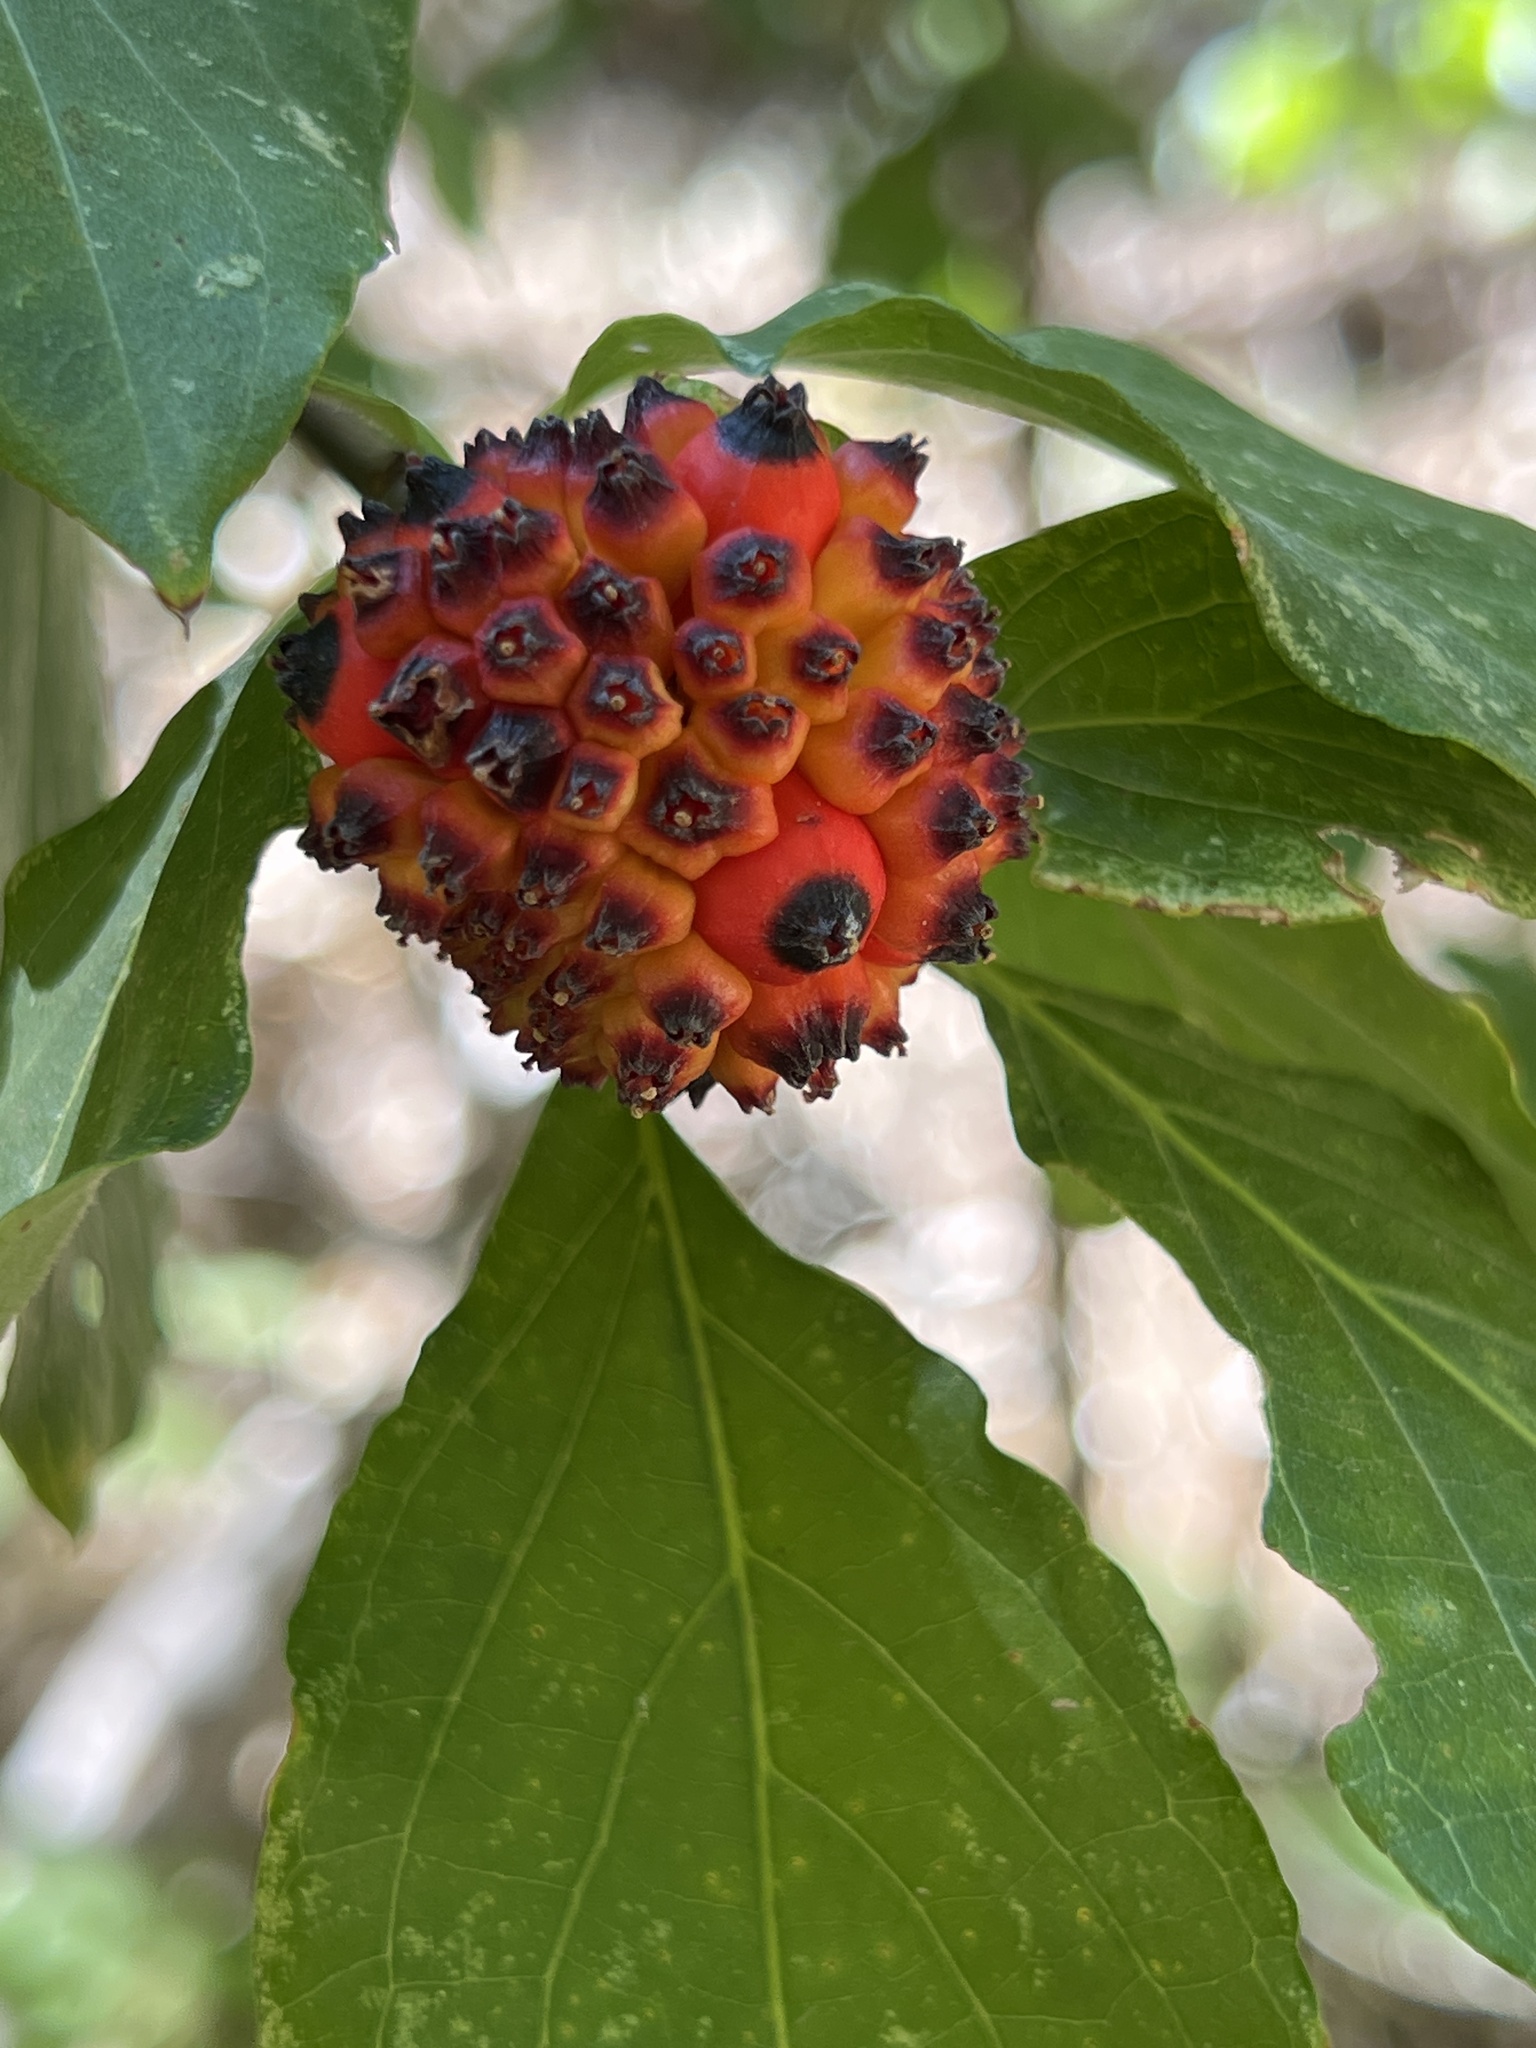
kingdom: Plantae
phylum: Tracheophyta
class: Magnoliopsida
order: Cornales
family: Cornaceae
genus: Cornus
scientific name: Cornus nuttallii
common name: Pacific dogwood
